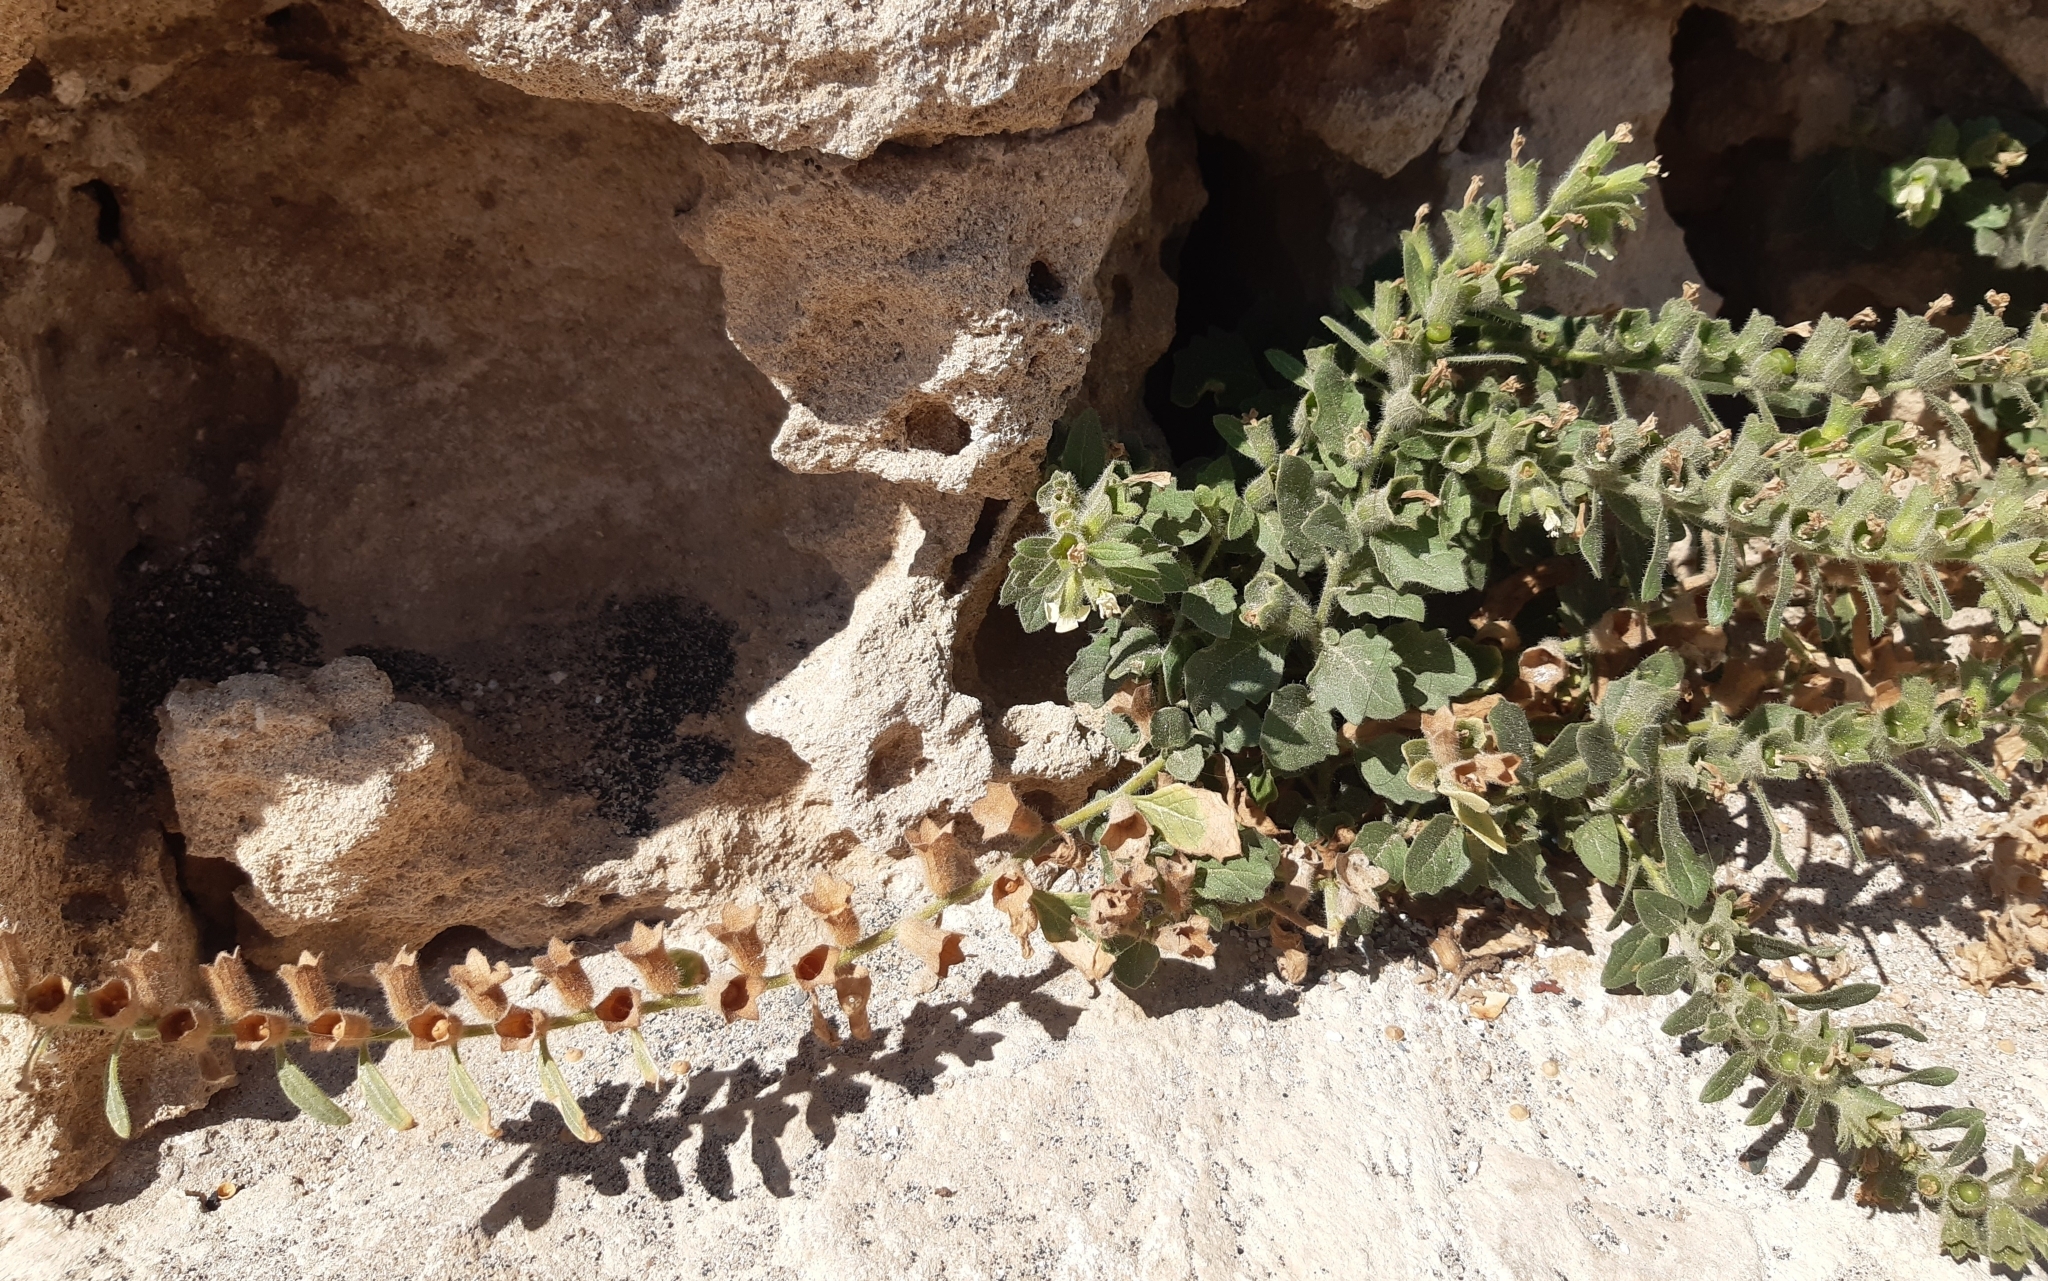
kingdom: Plantae
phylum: Tracheophyta
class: Magnoliopsida
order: Solanales
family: Solanaceae
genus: Hyoscyamus
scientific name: Hyoscyamus albus
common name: White henbane
